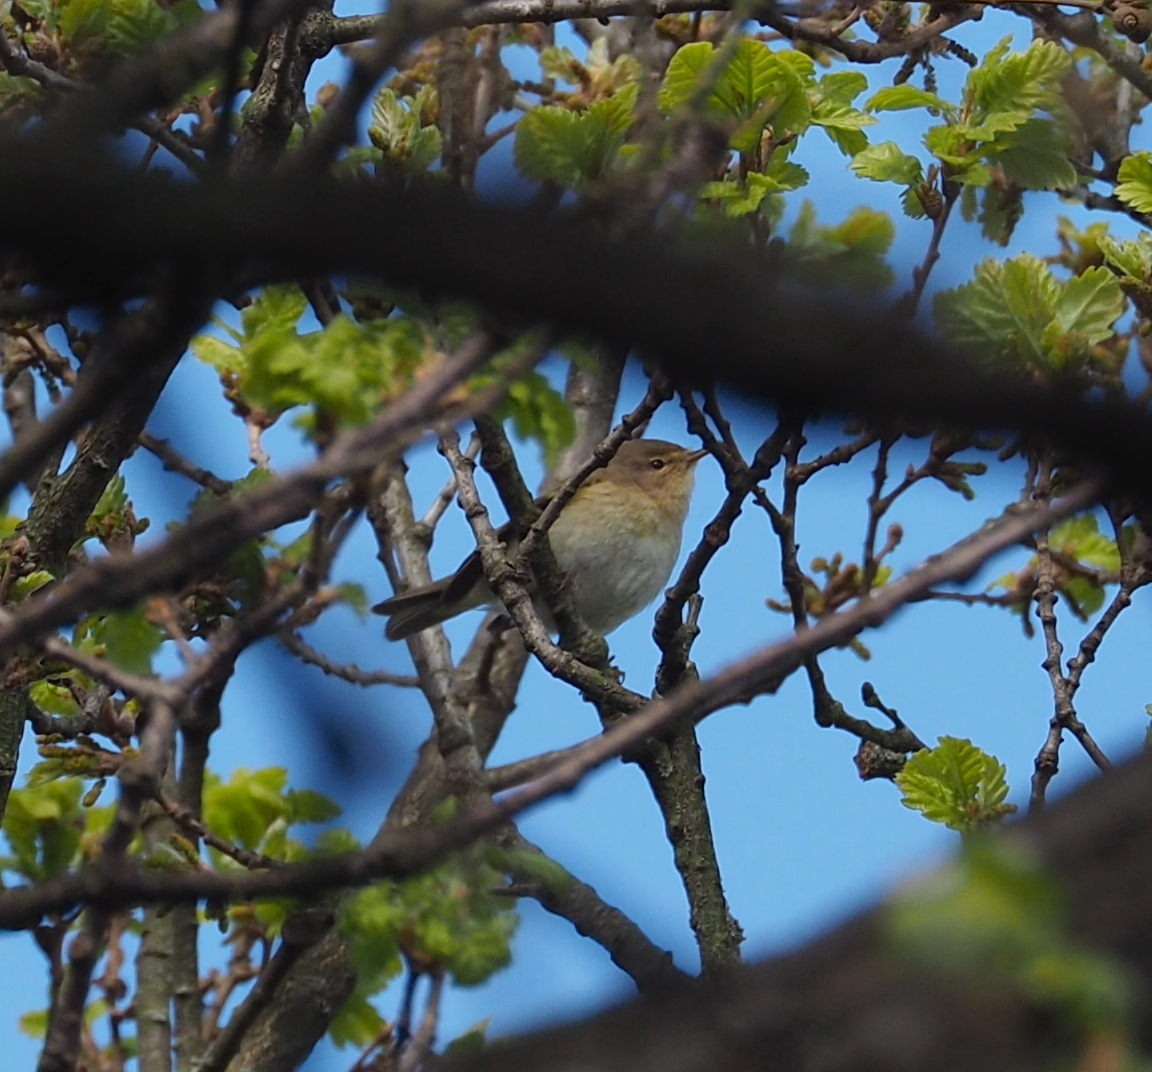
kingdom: Animalia
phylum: Chordata
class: Aves
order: Passeriformes
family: Phylloscopidae
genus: Phylloscopus
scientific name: Phylloscopus collybita
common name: Common chiffchaff
